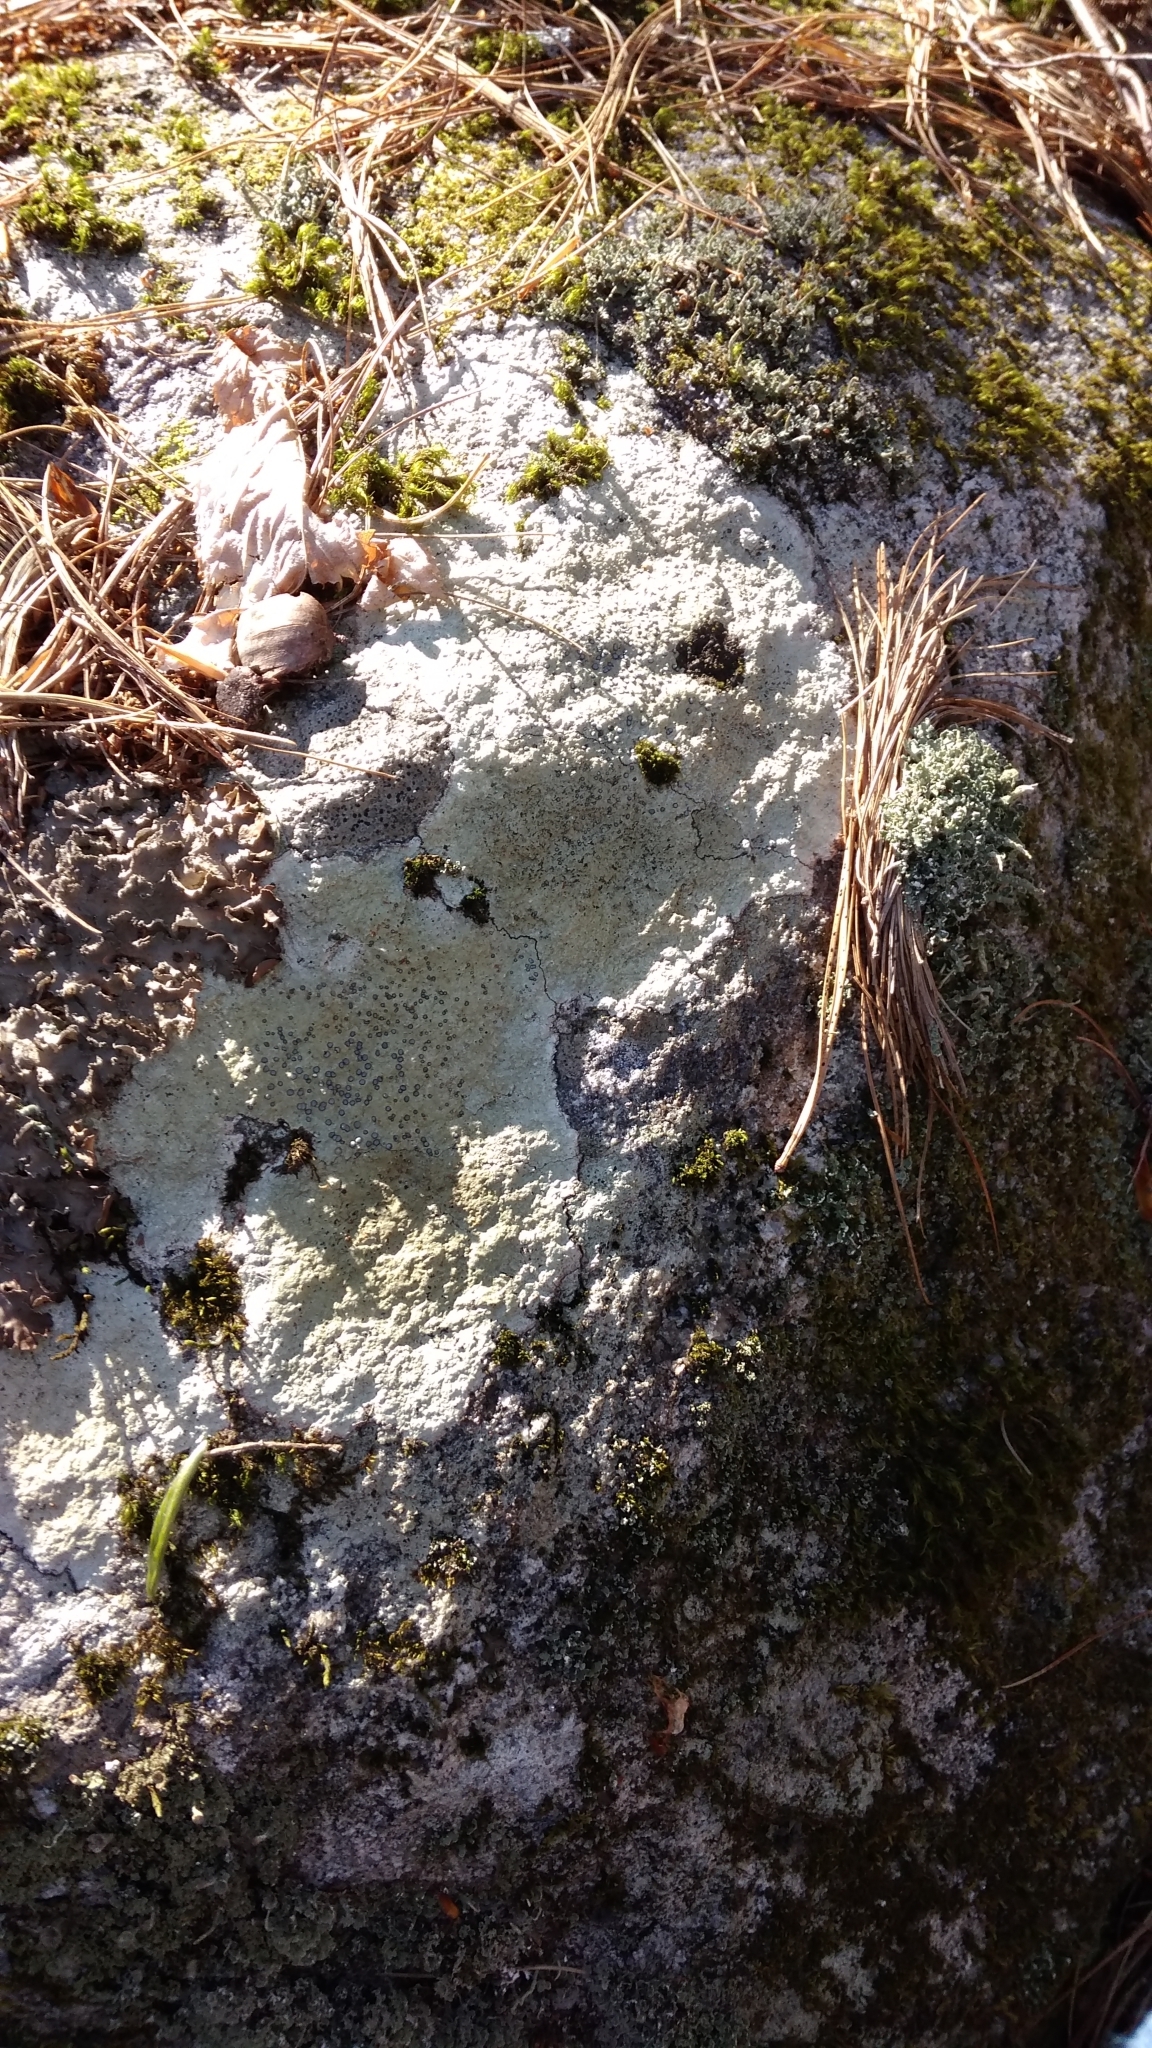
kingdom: Fungi
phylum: Ascomycota
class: Lecanoromycetes
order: Lecideales
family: Lecideaceae
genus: Porpidia
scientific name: Porpidia albocaerulescens
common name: Smokey-eyed boulder lichen
